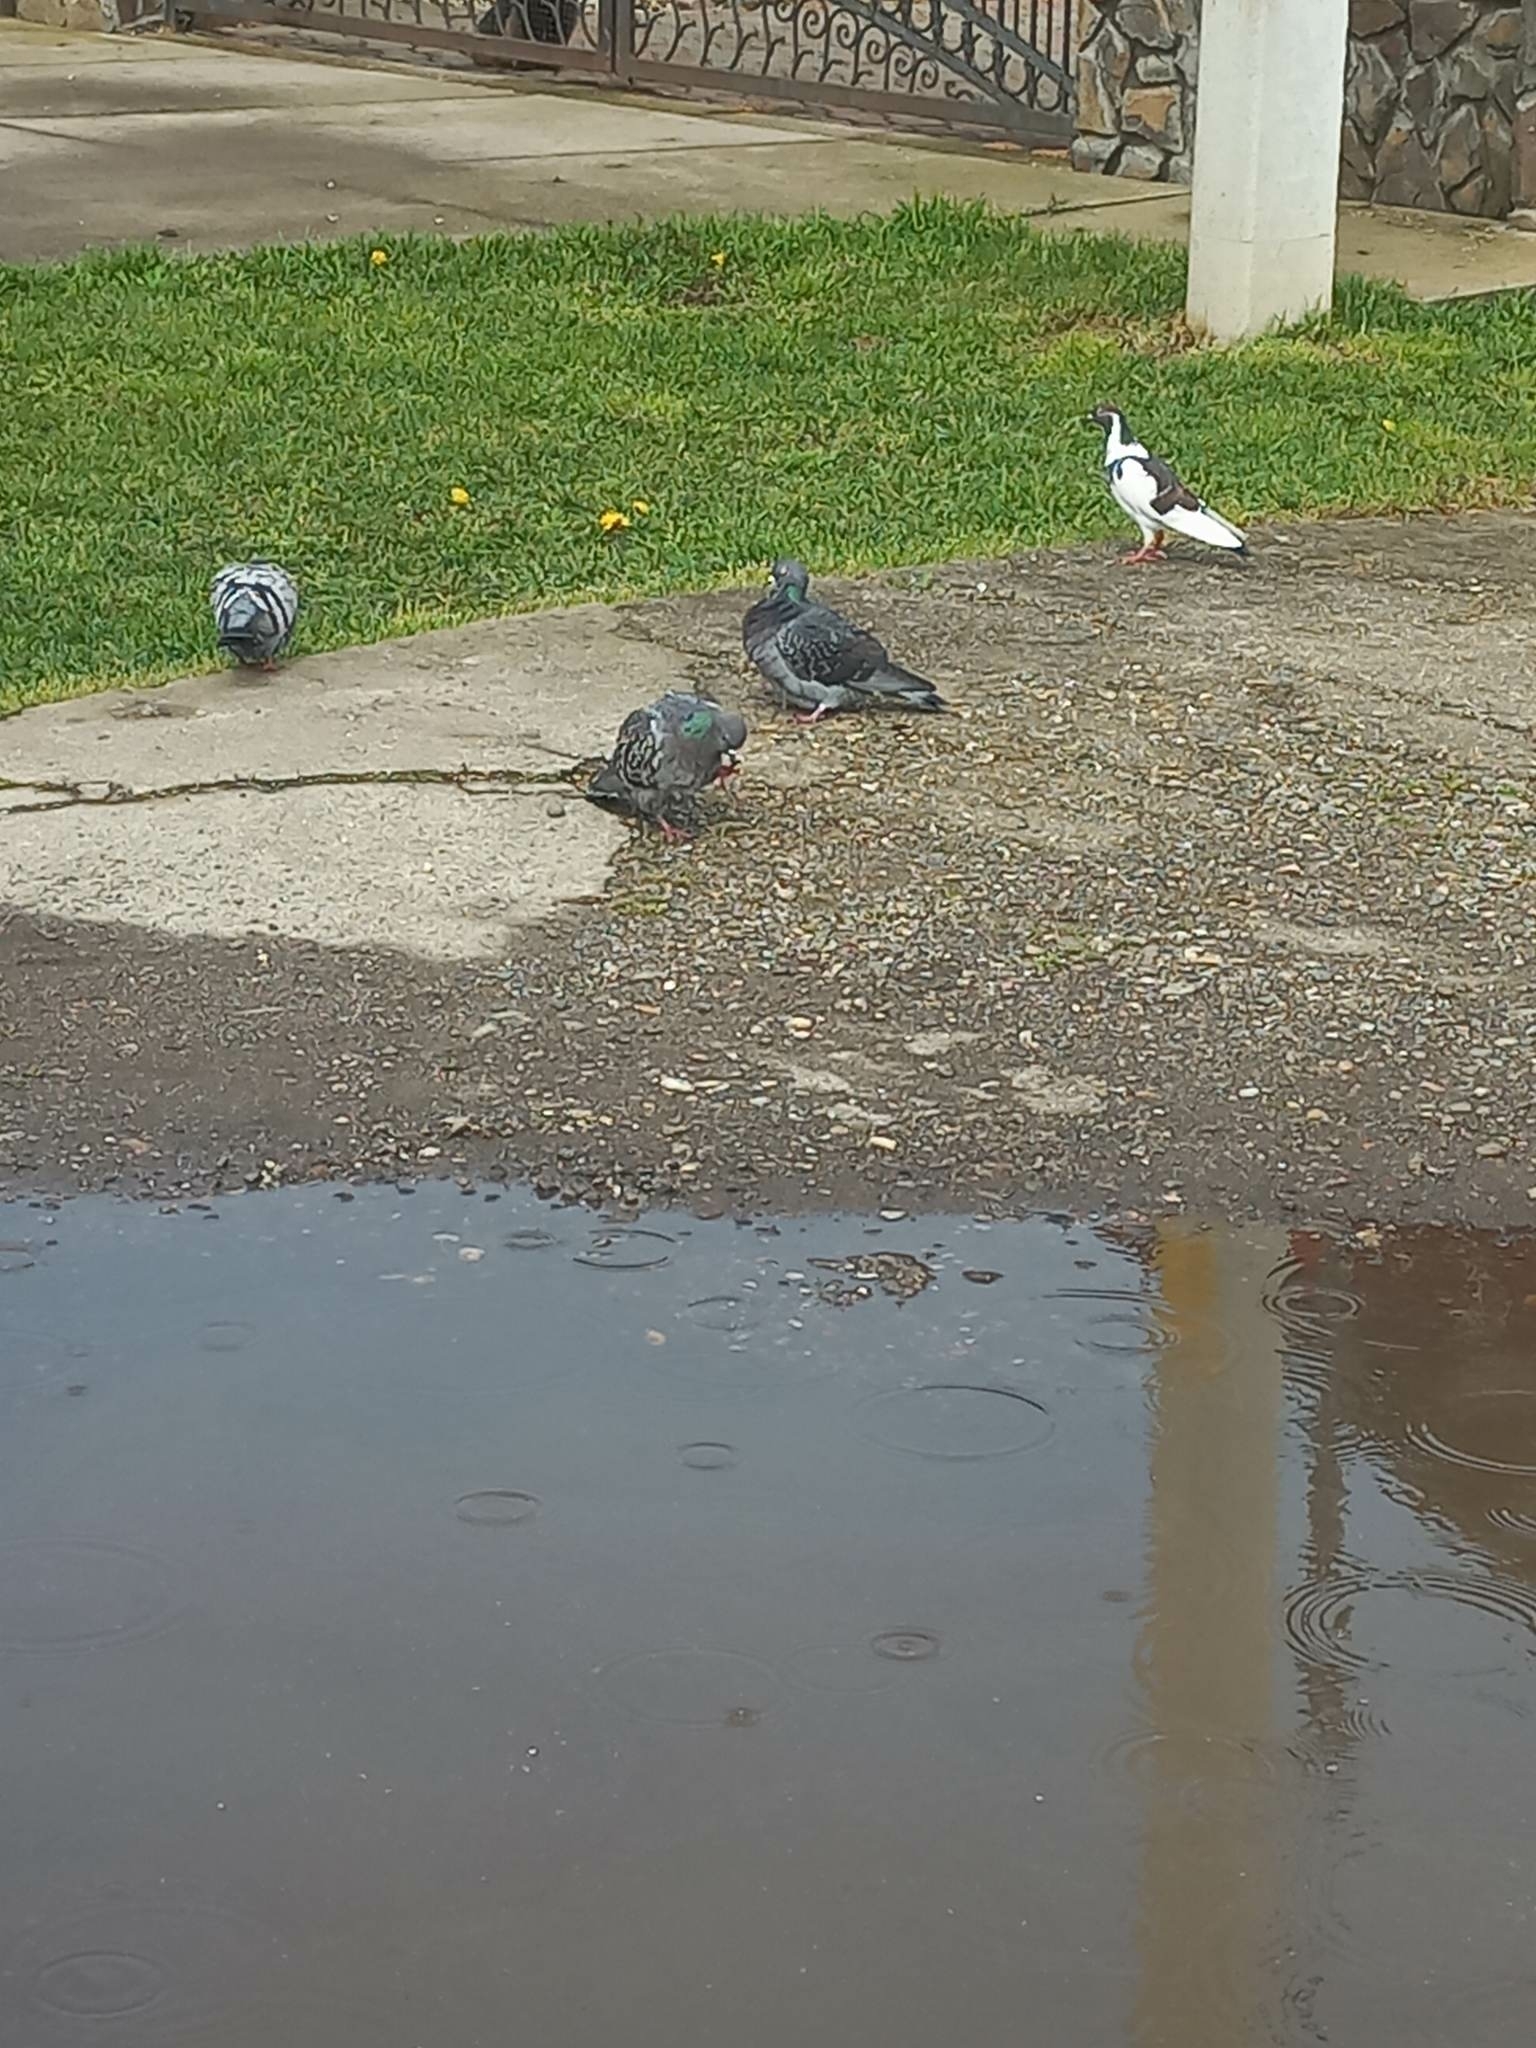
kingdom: Animalia
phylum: Chordata
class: Aves
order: Columbiformes
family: Columbidae
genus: Columba
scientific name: Columba livia
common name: Rock pigeon
